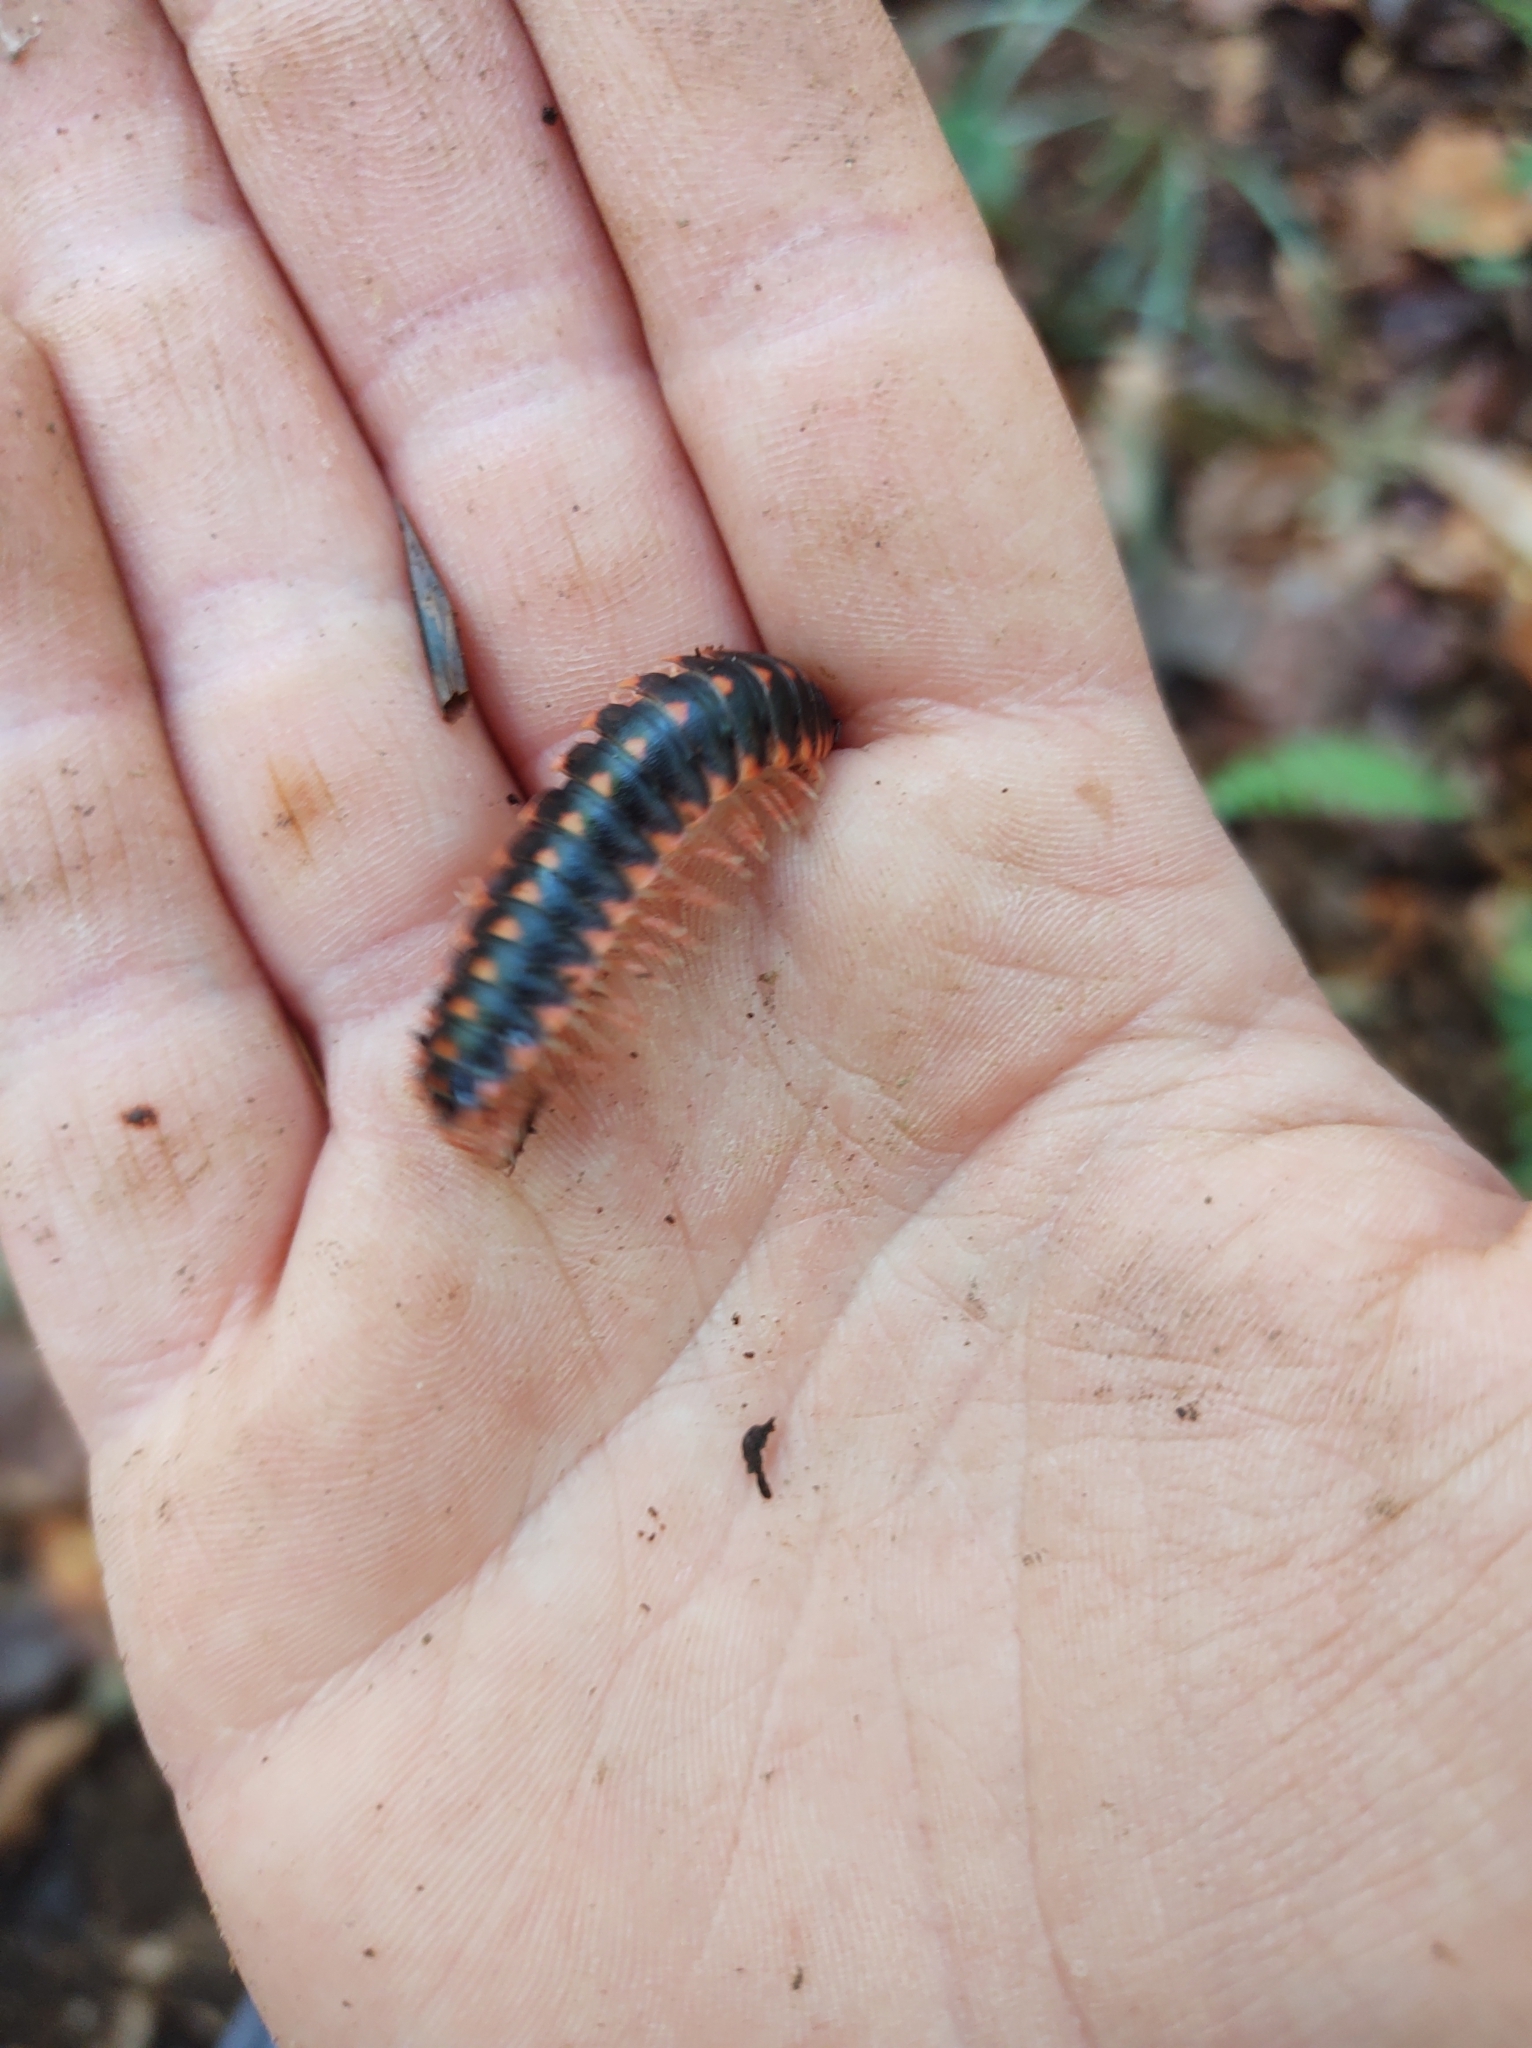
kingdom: Animalia
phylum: Arthropoda
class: Diplopoda
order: Polydesmida
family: Xystodesmidae
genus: Cherokia
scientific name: Cherokia georgiana
